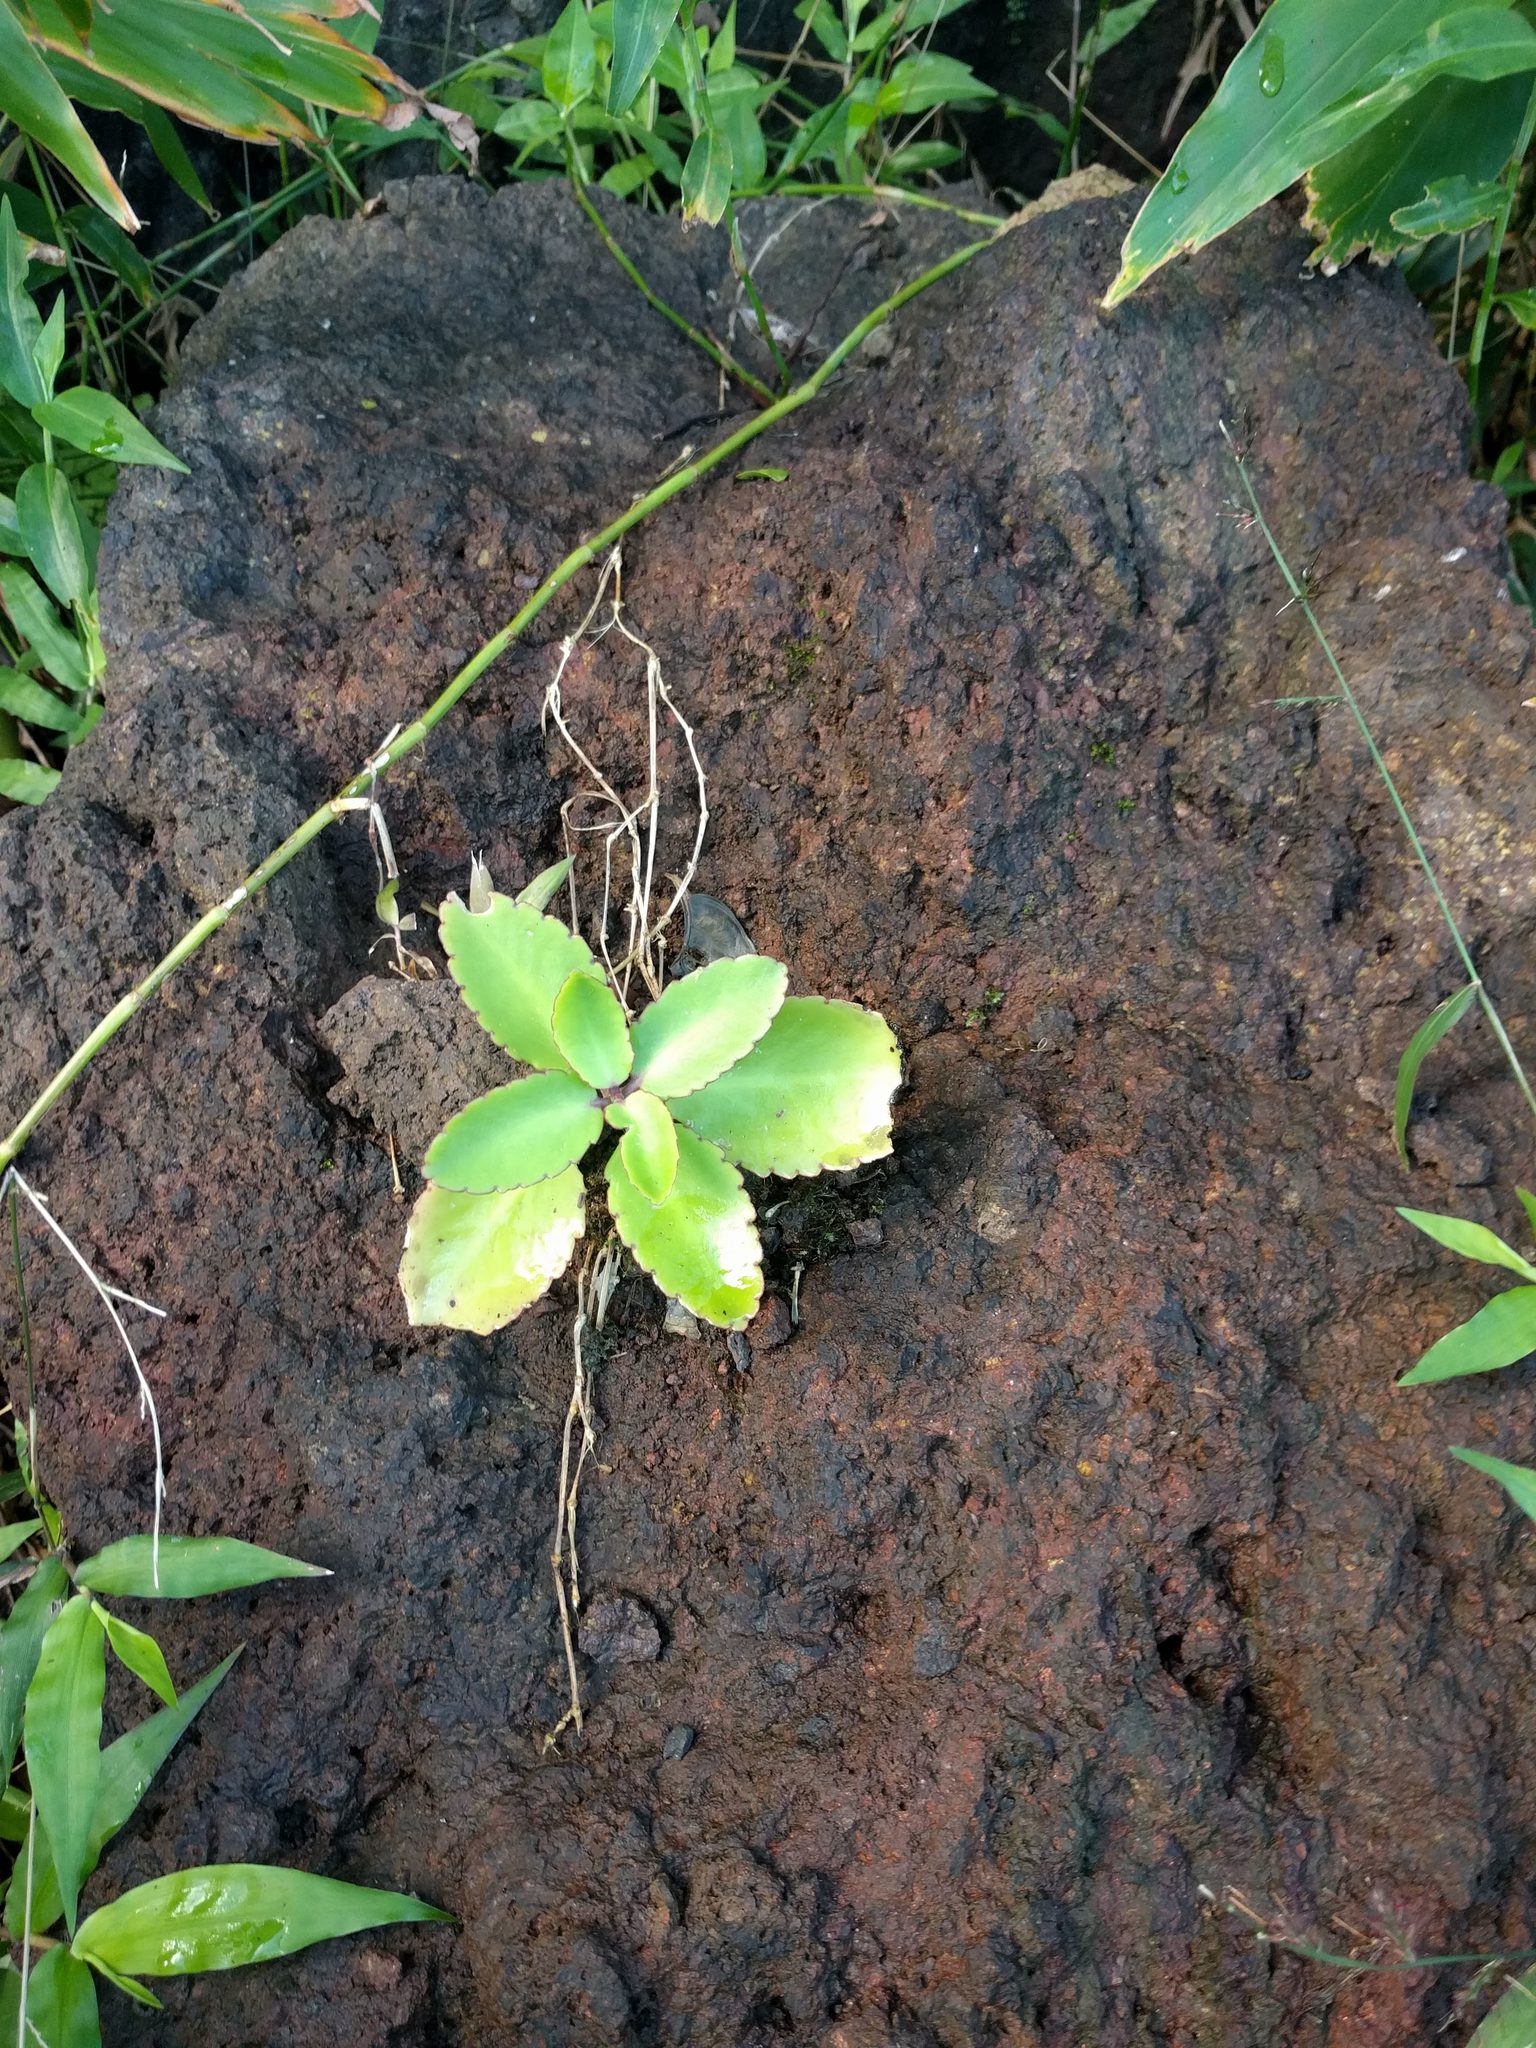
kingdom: Plantae
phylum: Tracheophyta
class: Magnoliopsida
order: Saxifragales
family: Crassulaceae
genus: Kalanchoe
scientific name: Kalanchoe pinnata
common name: Cathedral bells
